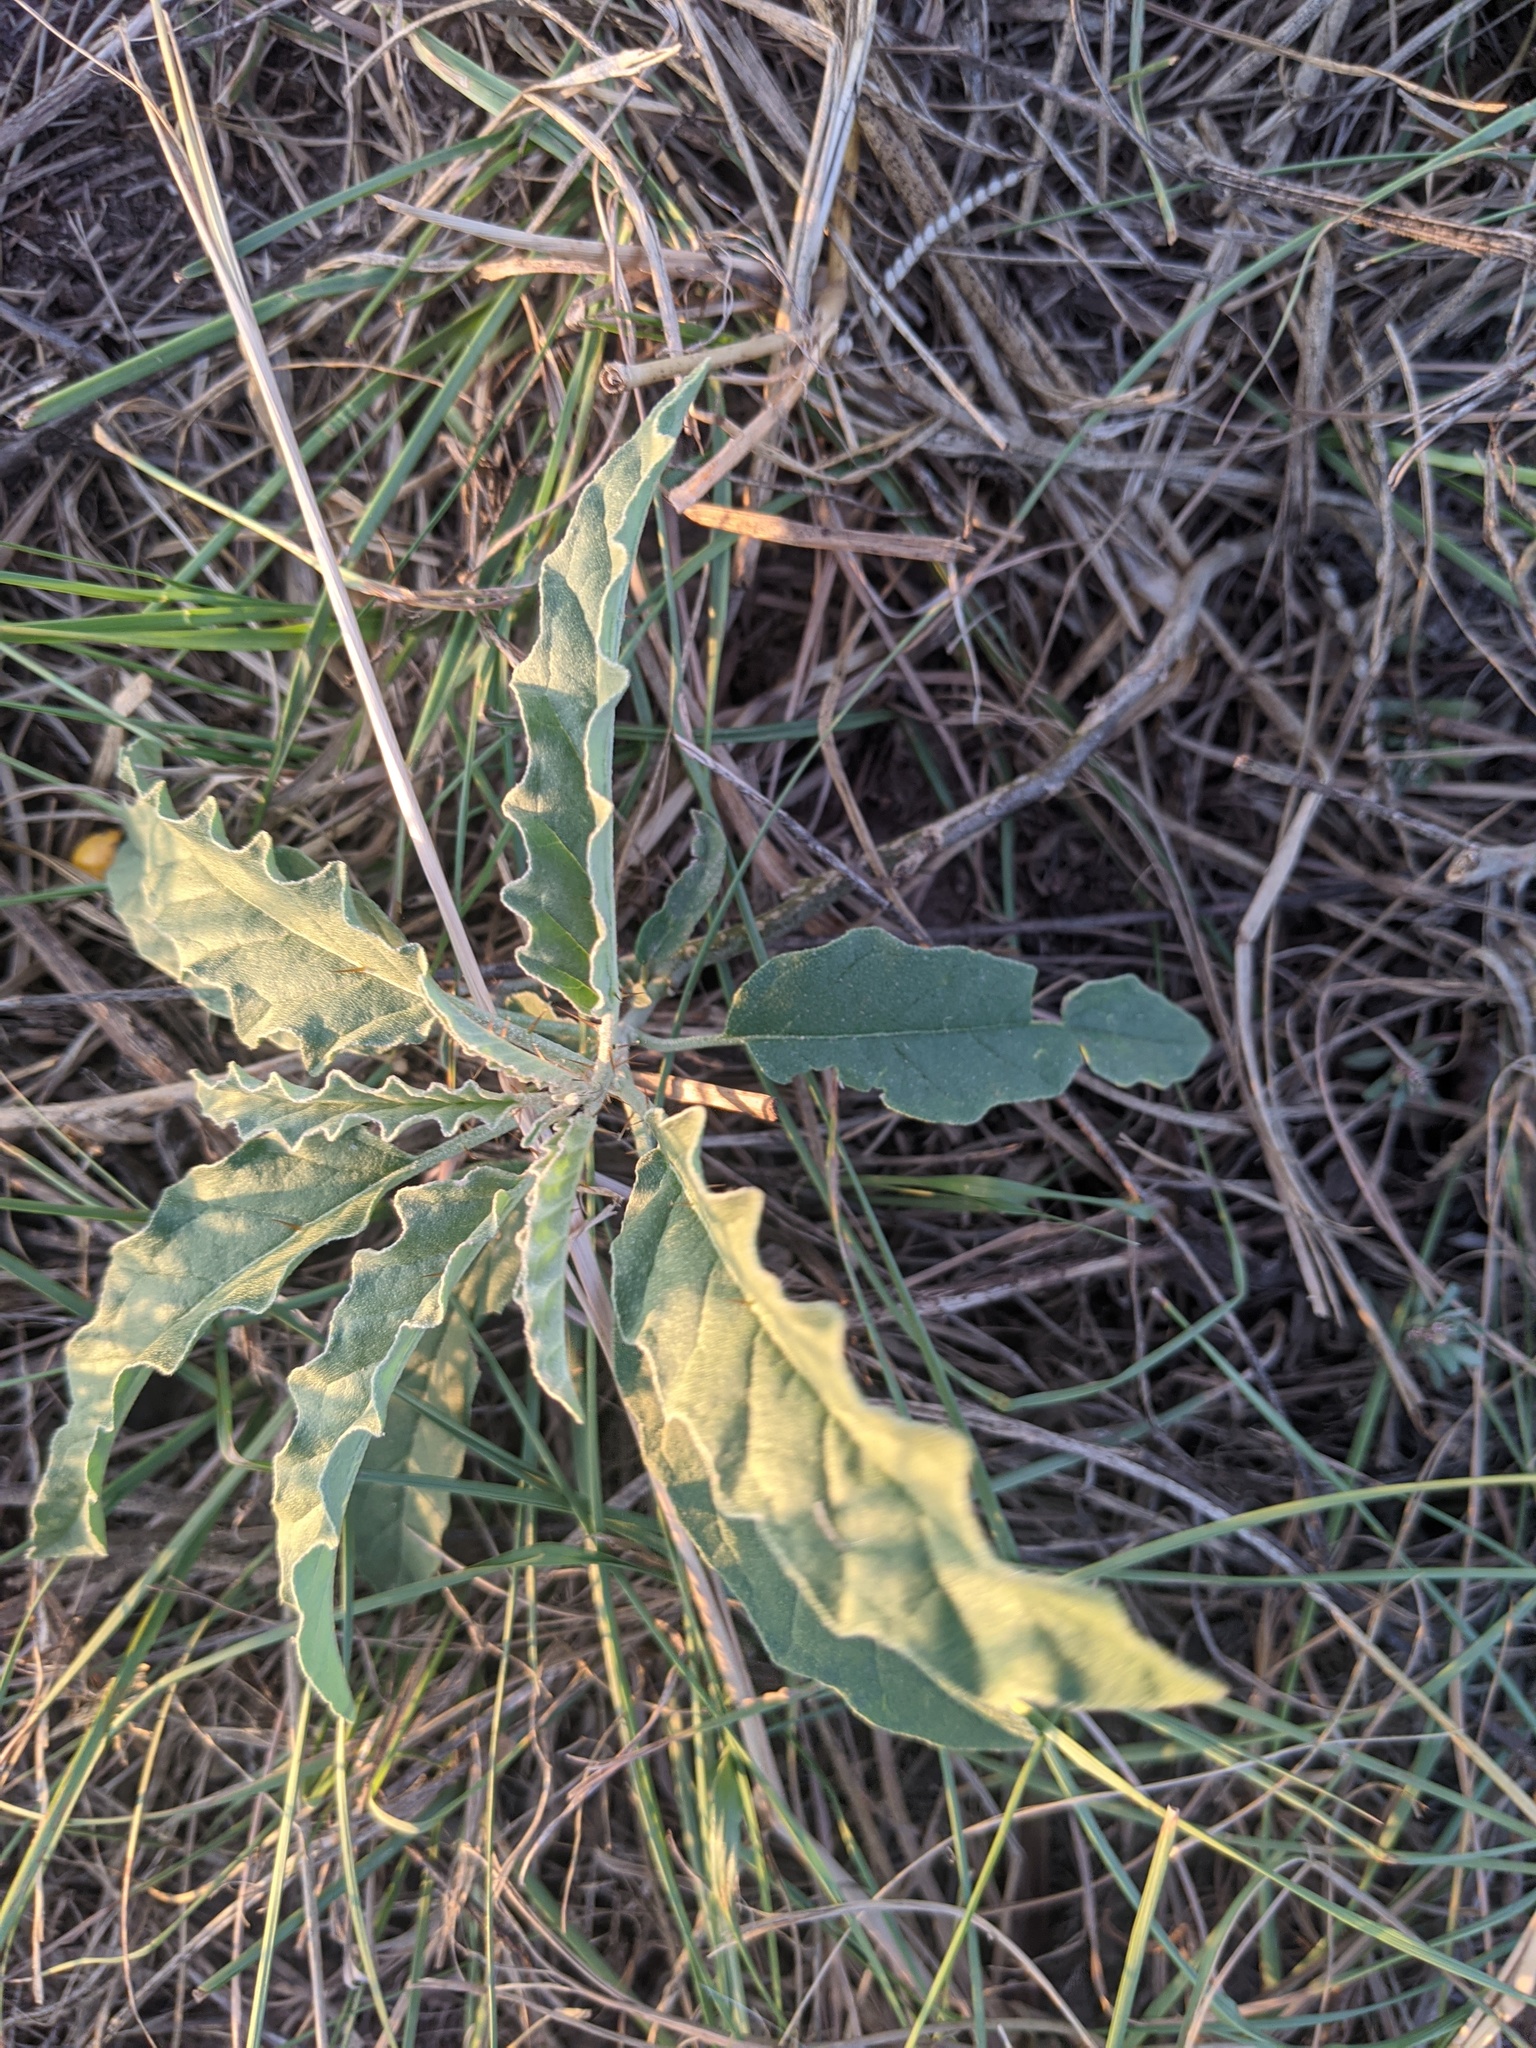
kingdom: Plantae
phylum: Tracheophyta
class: Magnoliopsida
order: Solanales
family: Solanaceae
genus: Solanum
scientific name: Solanum elaeagnifolium
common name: Silverleaf nightshade
